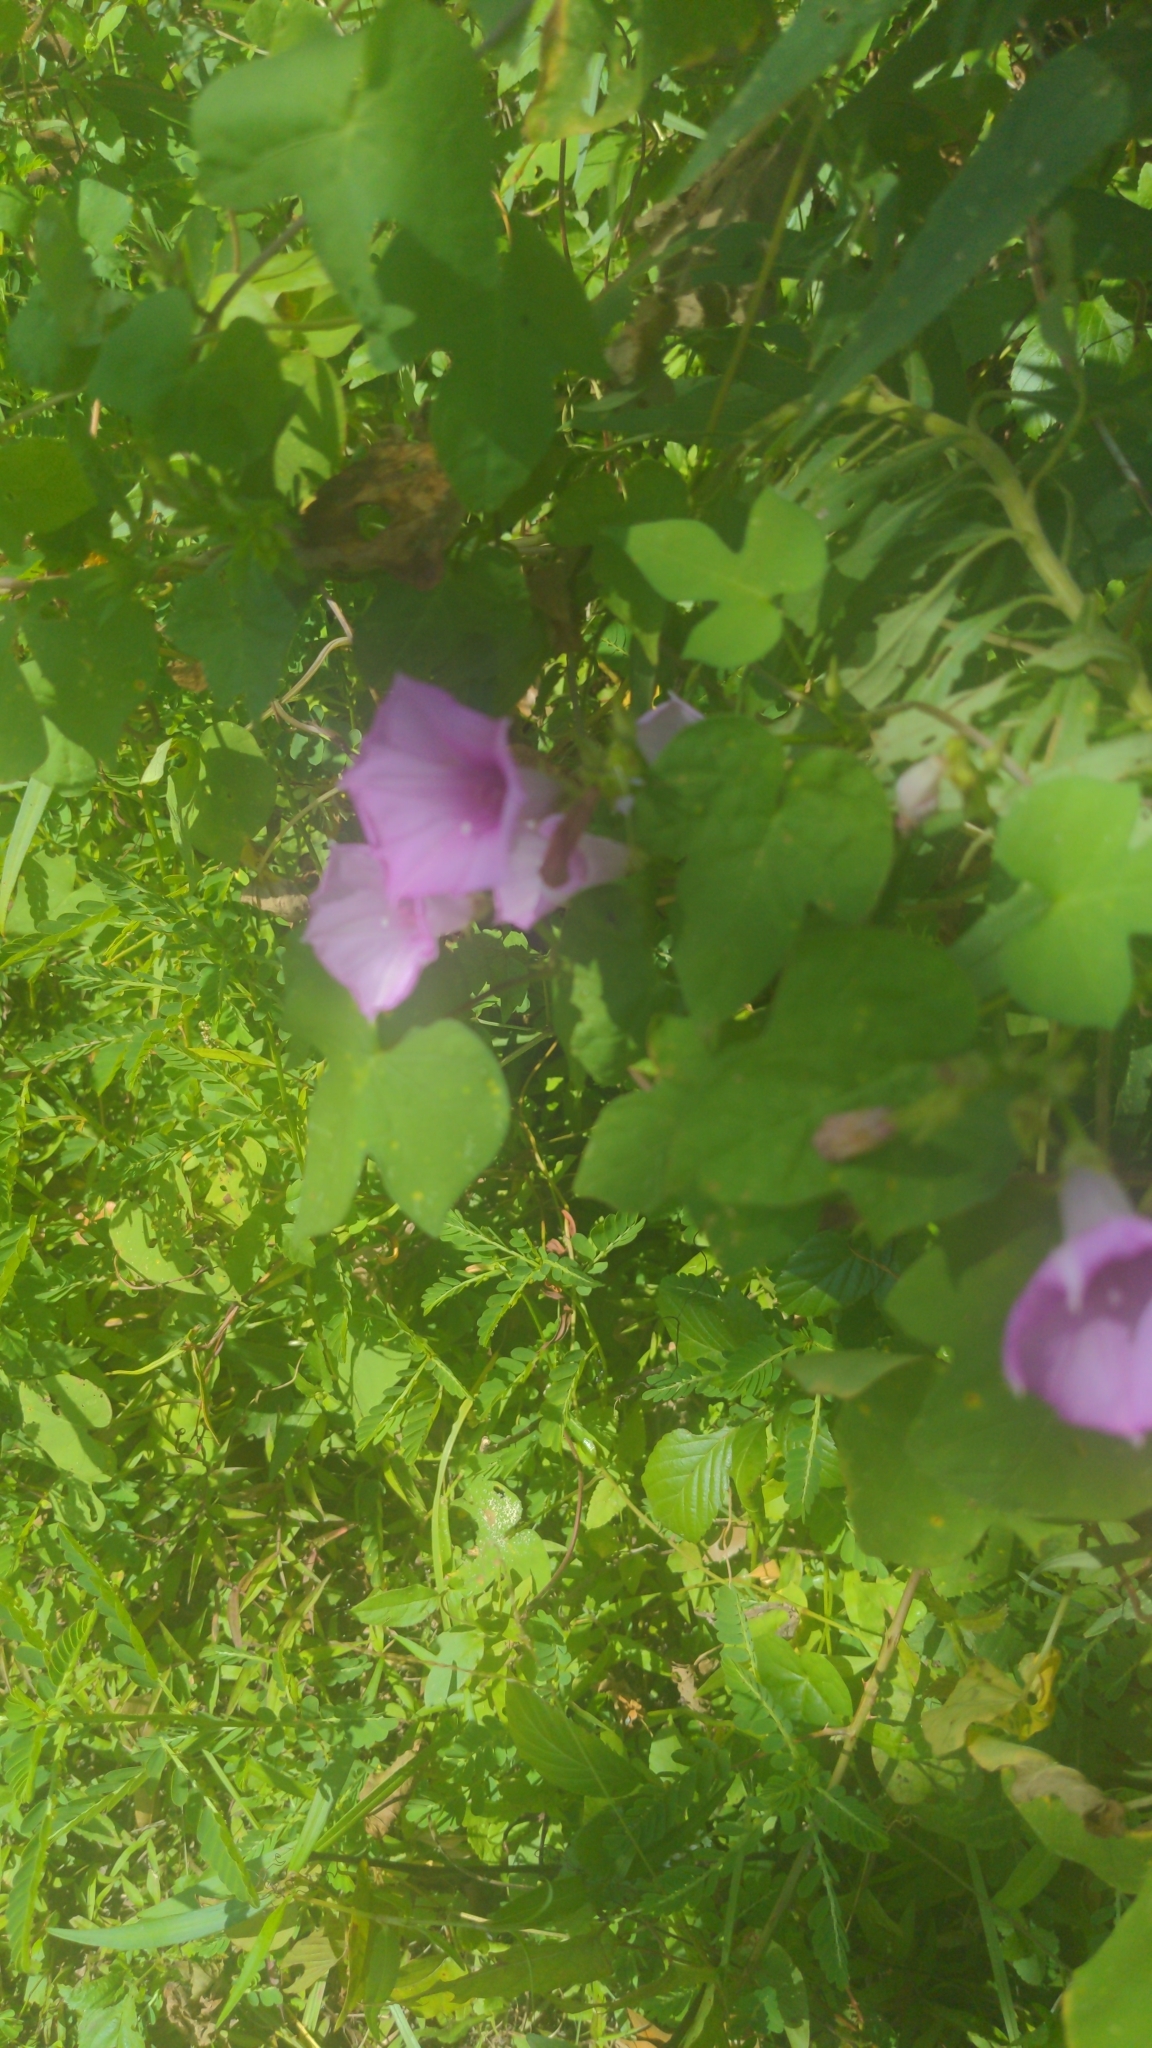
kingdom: Plantae
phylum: Tracheophyta
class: Magnoliopsida
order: Solanales
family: Convolvulaceae
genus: Ipomoea
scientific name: Ipomoea cordatotriloba
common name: Cotton morning glory
